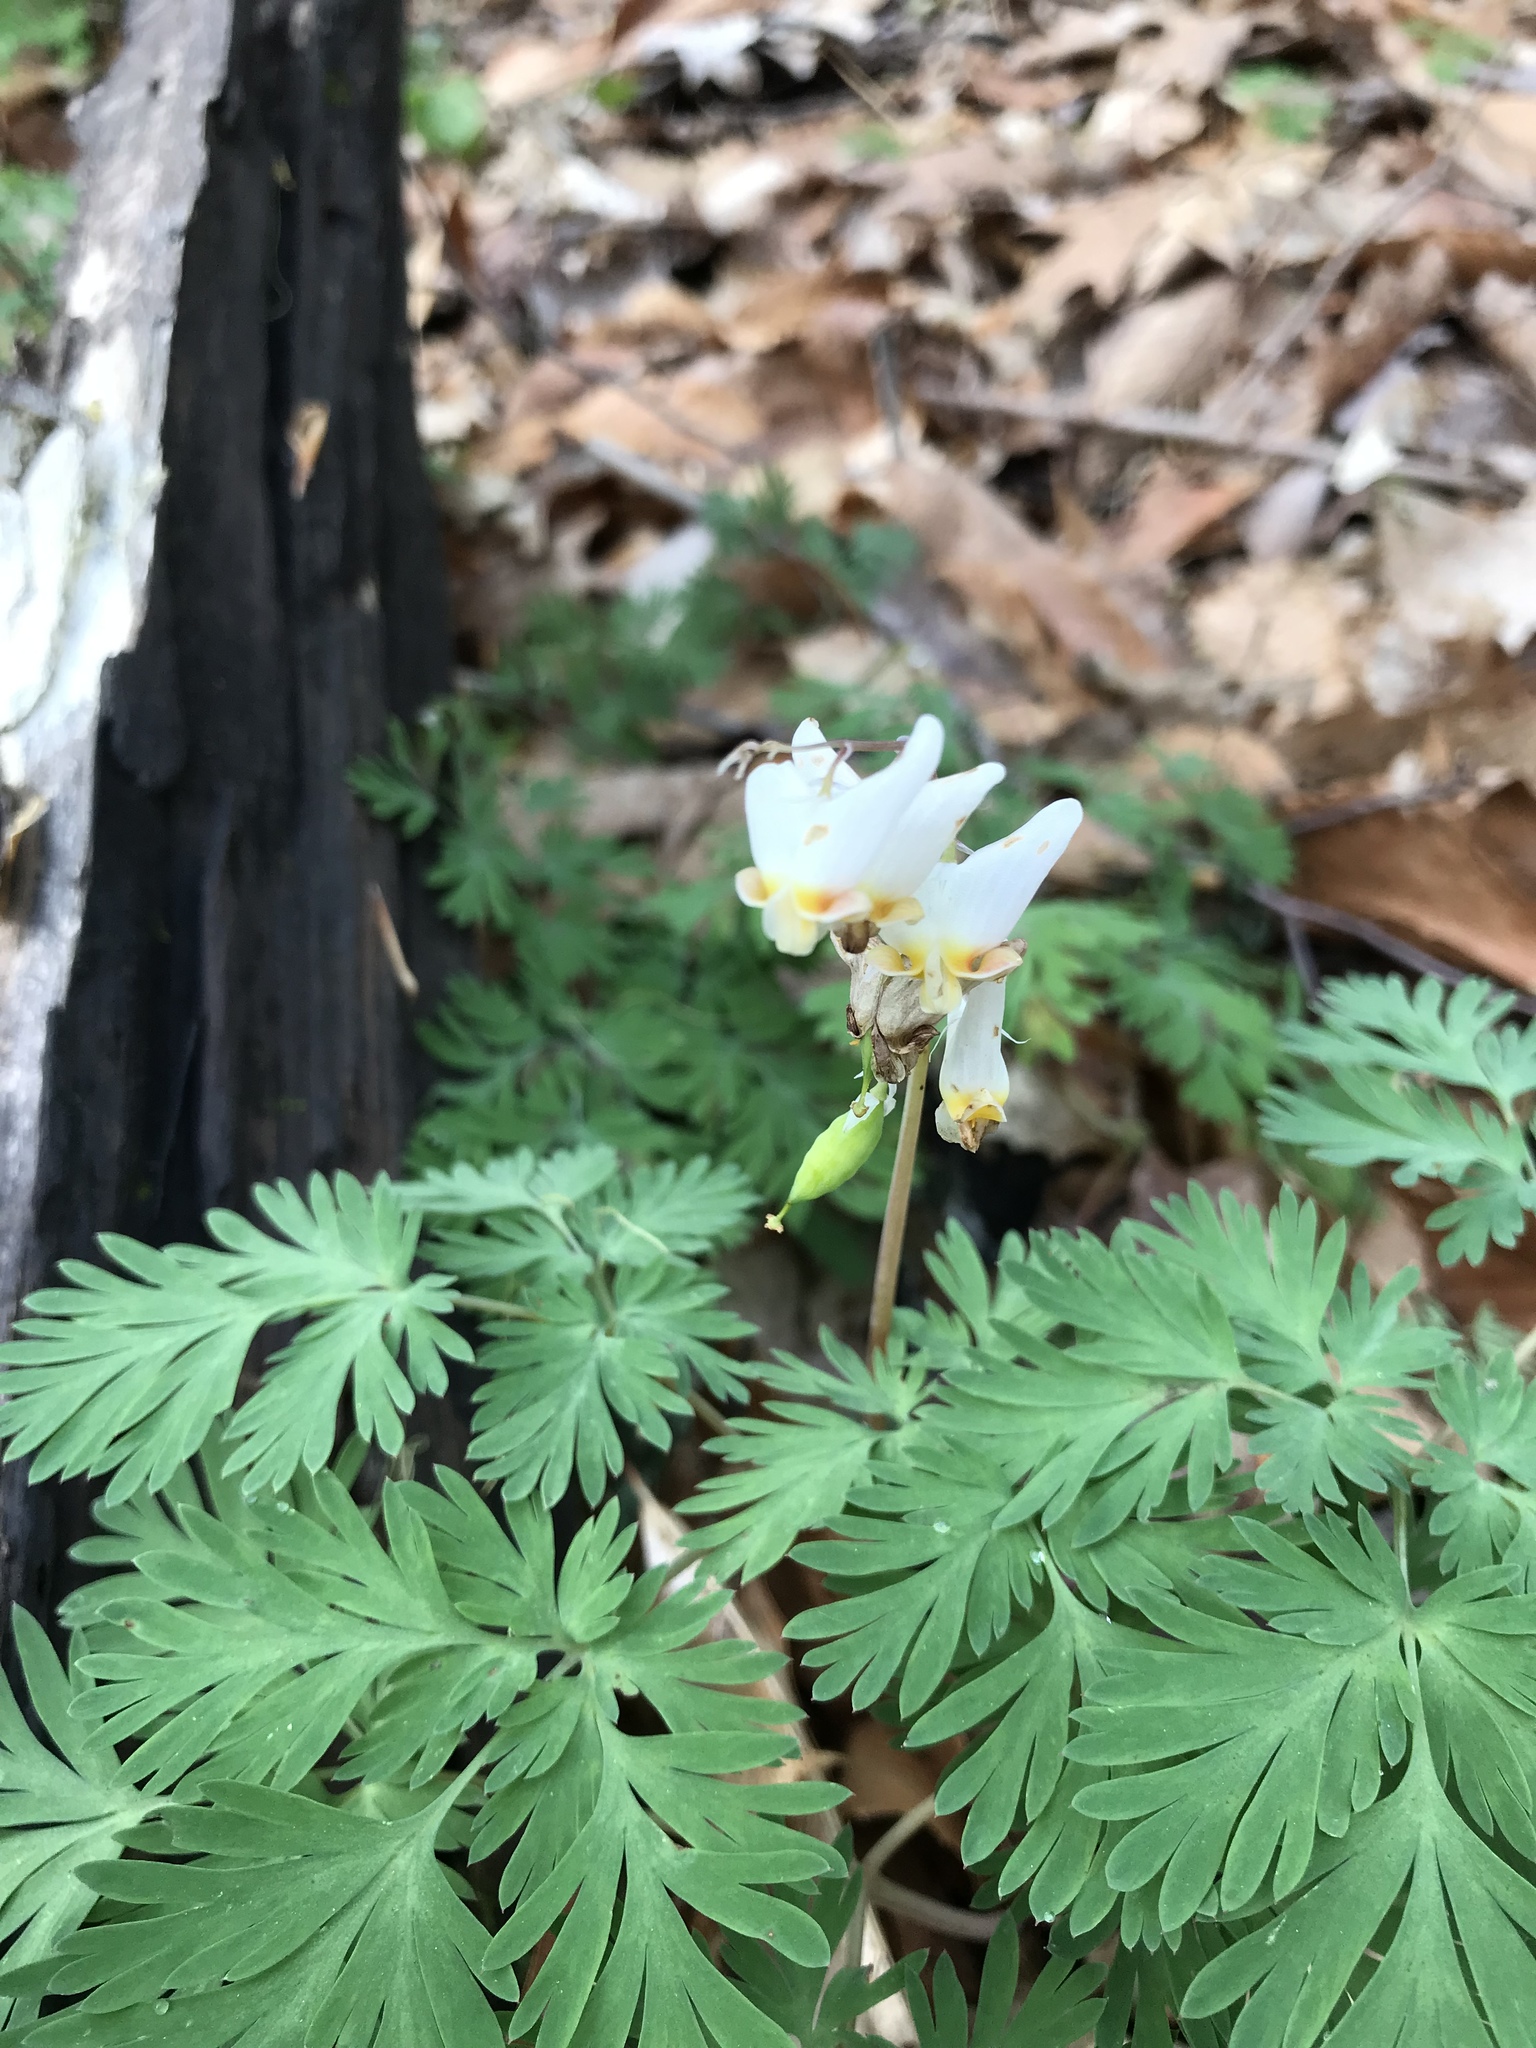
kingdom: Plantae
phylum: Tracheophyta
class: Magnoliopsida
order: Ranunculales
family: Papaveraceae
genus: Dicentra
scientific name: Dicentra cucullaria
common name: Dutchman's breeches
